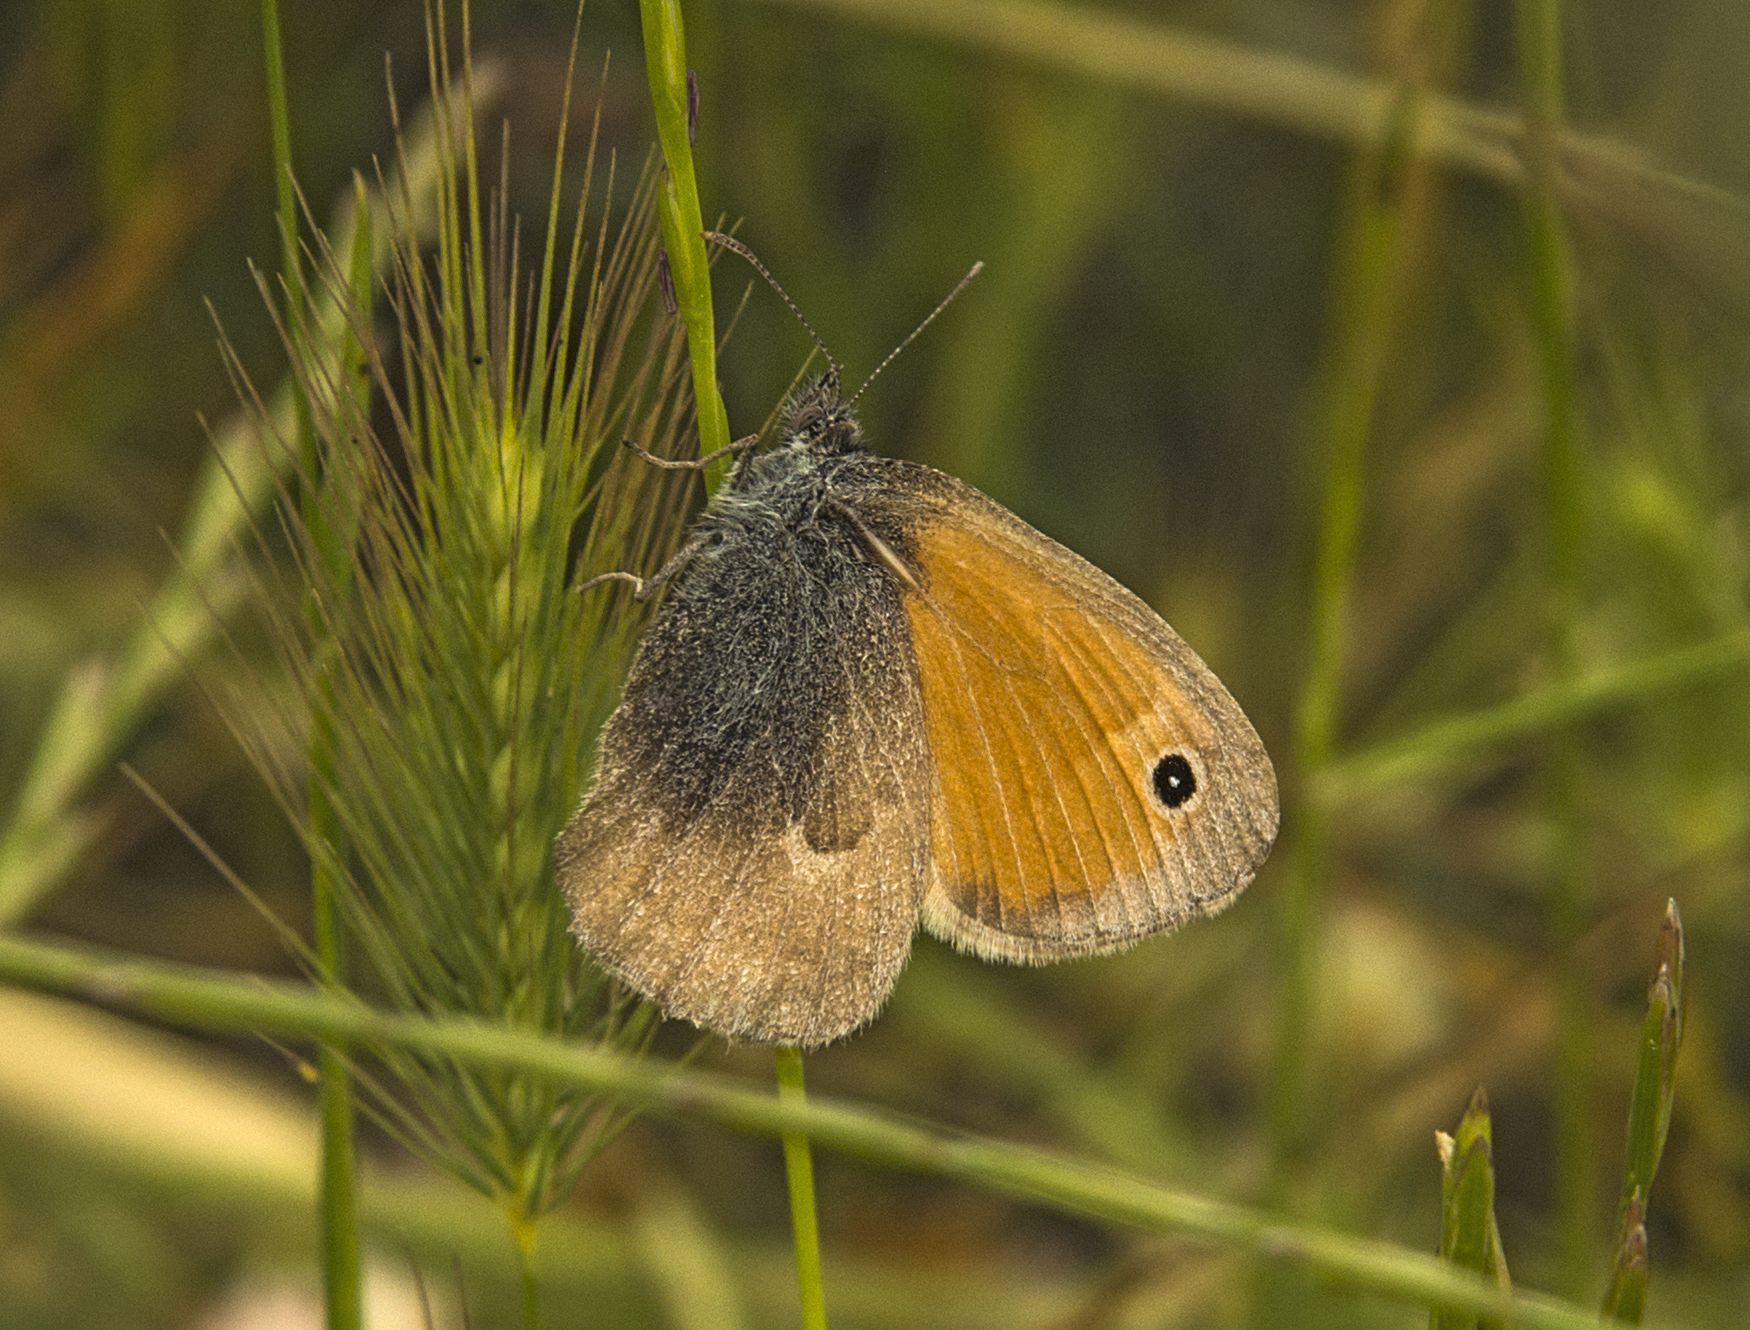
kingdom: Animalia
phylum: Arthropoda
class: Insecta
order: Lepidoptera
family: Nymphalidae
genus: Coenonympha
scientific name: Coenonympha pamphilus
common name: Small heath
